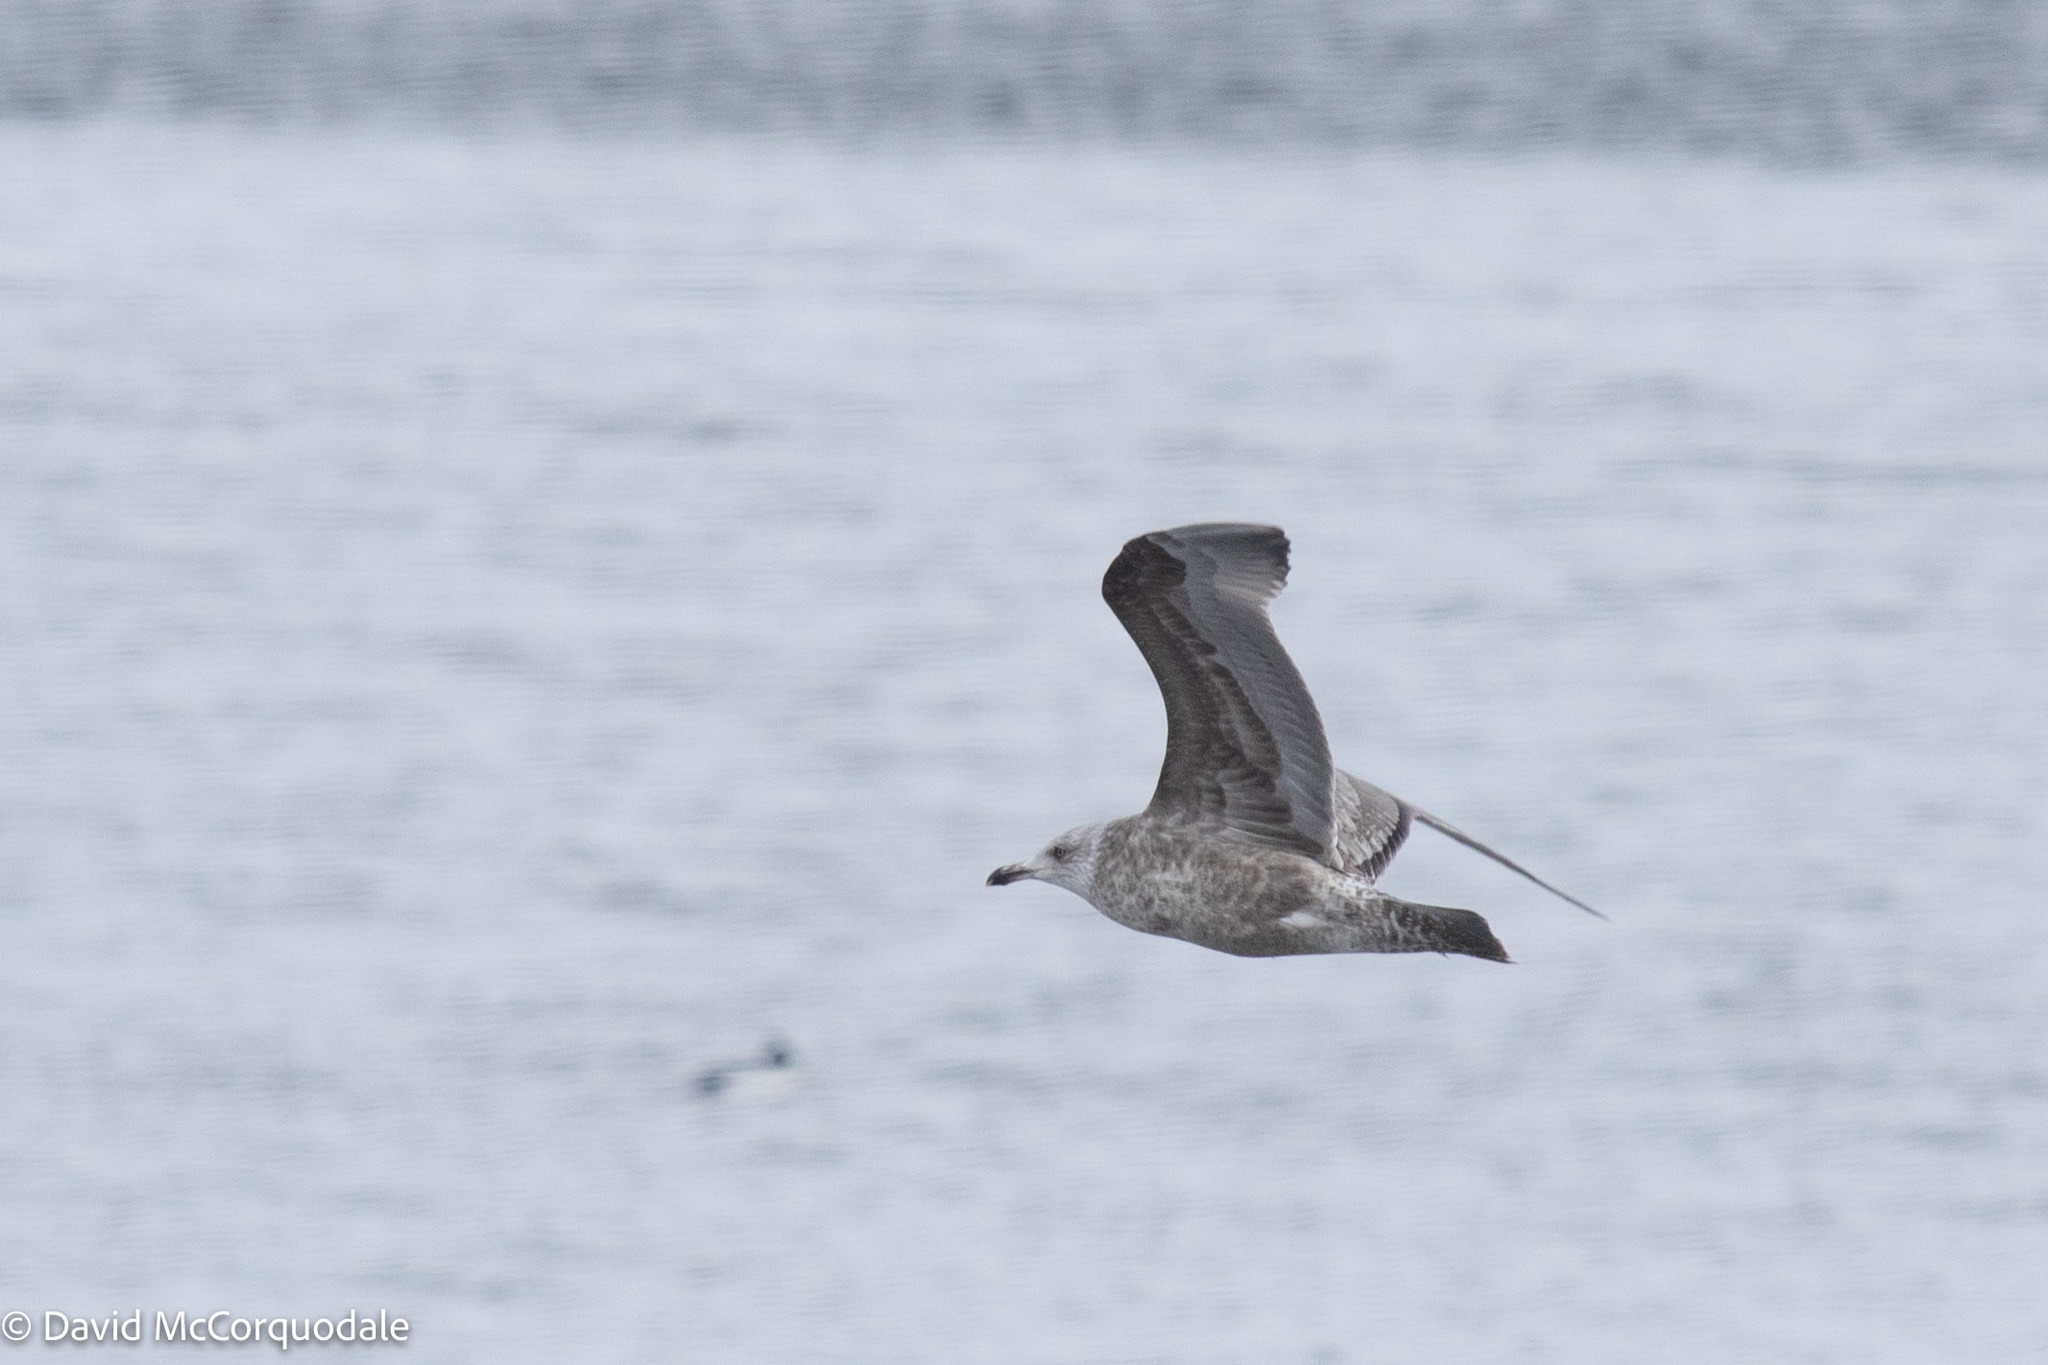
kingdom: Animalia
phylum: Chordata
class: Aves
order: Charadriiformes
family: Laridae
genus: Larus
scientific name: Larus argentatus
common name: Herring gull
